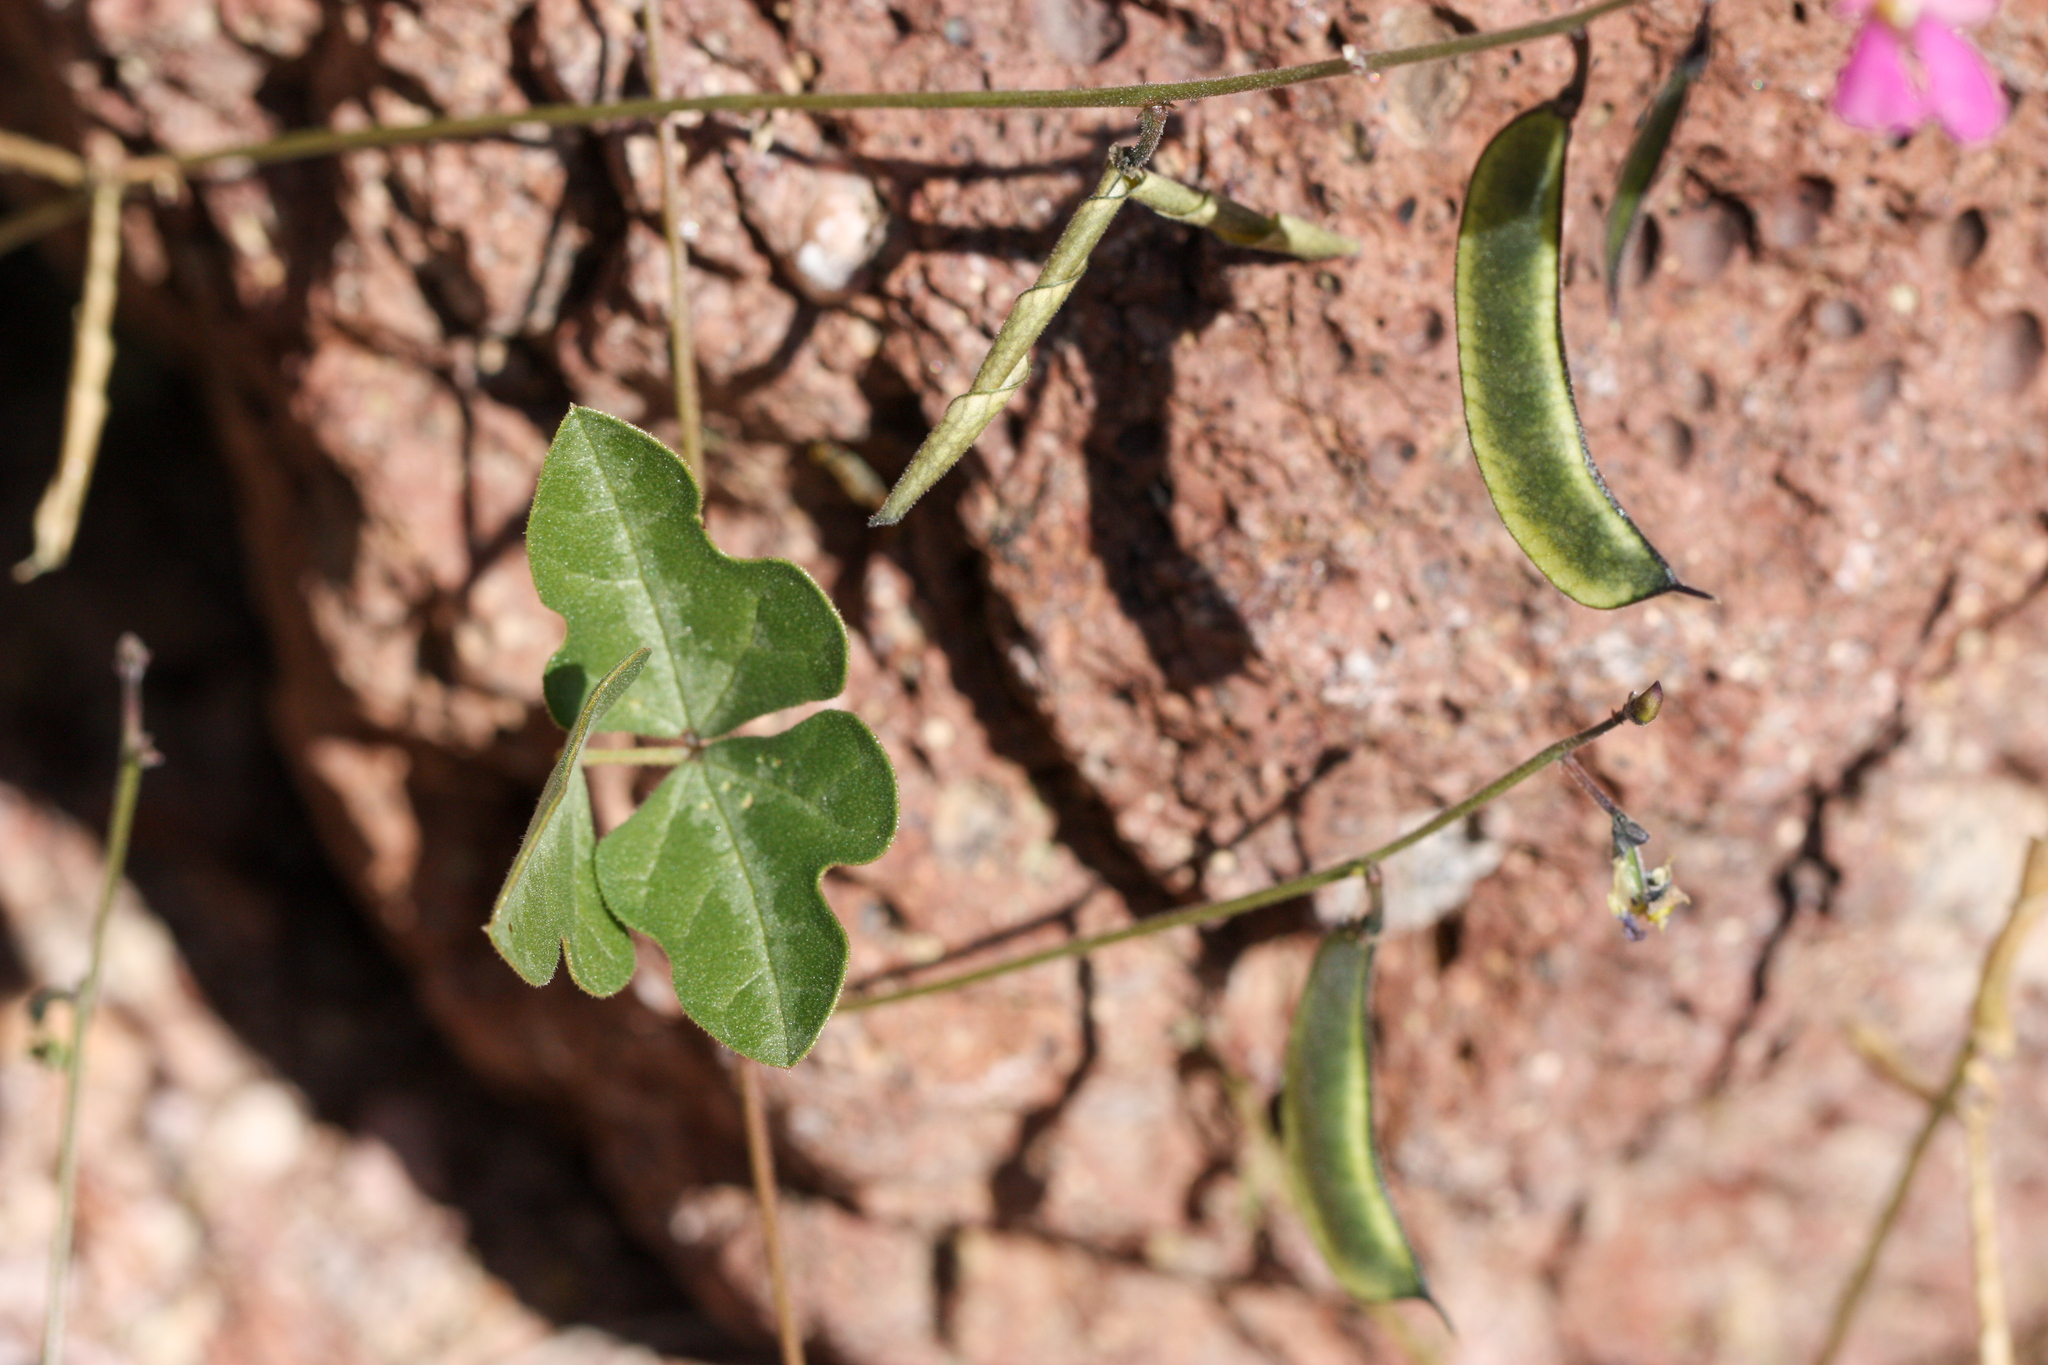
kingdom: Plantae
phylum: Tracheophyta
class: Magnoliopsida
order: Fabales
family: Fabaceae
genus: Phaseolus
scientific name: Phaseolus filiformis
